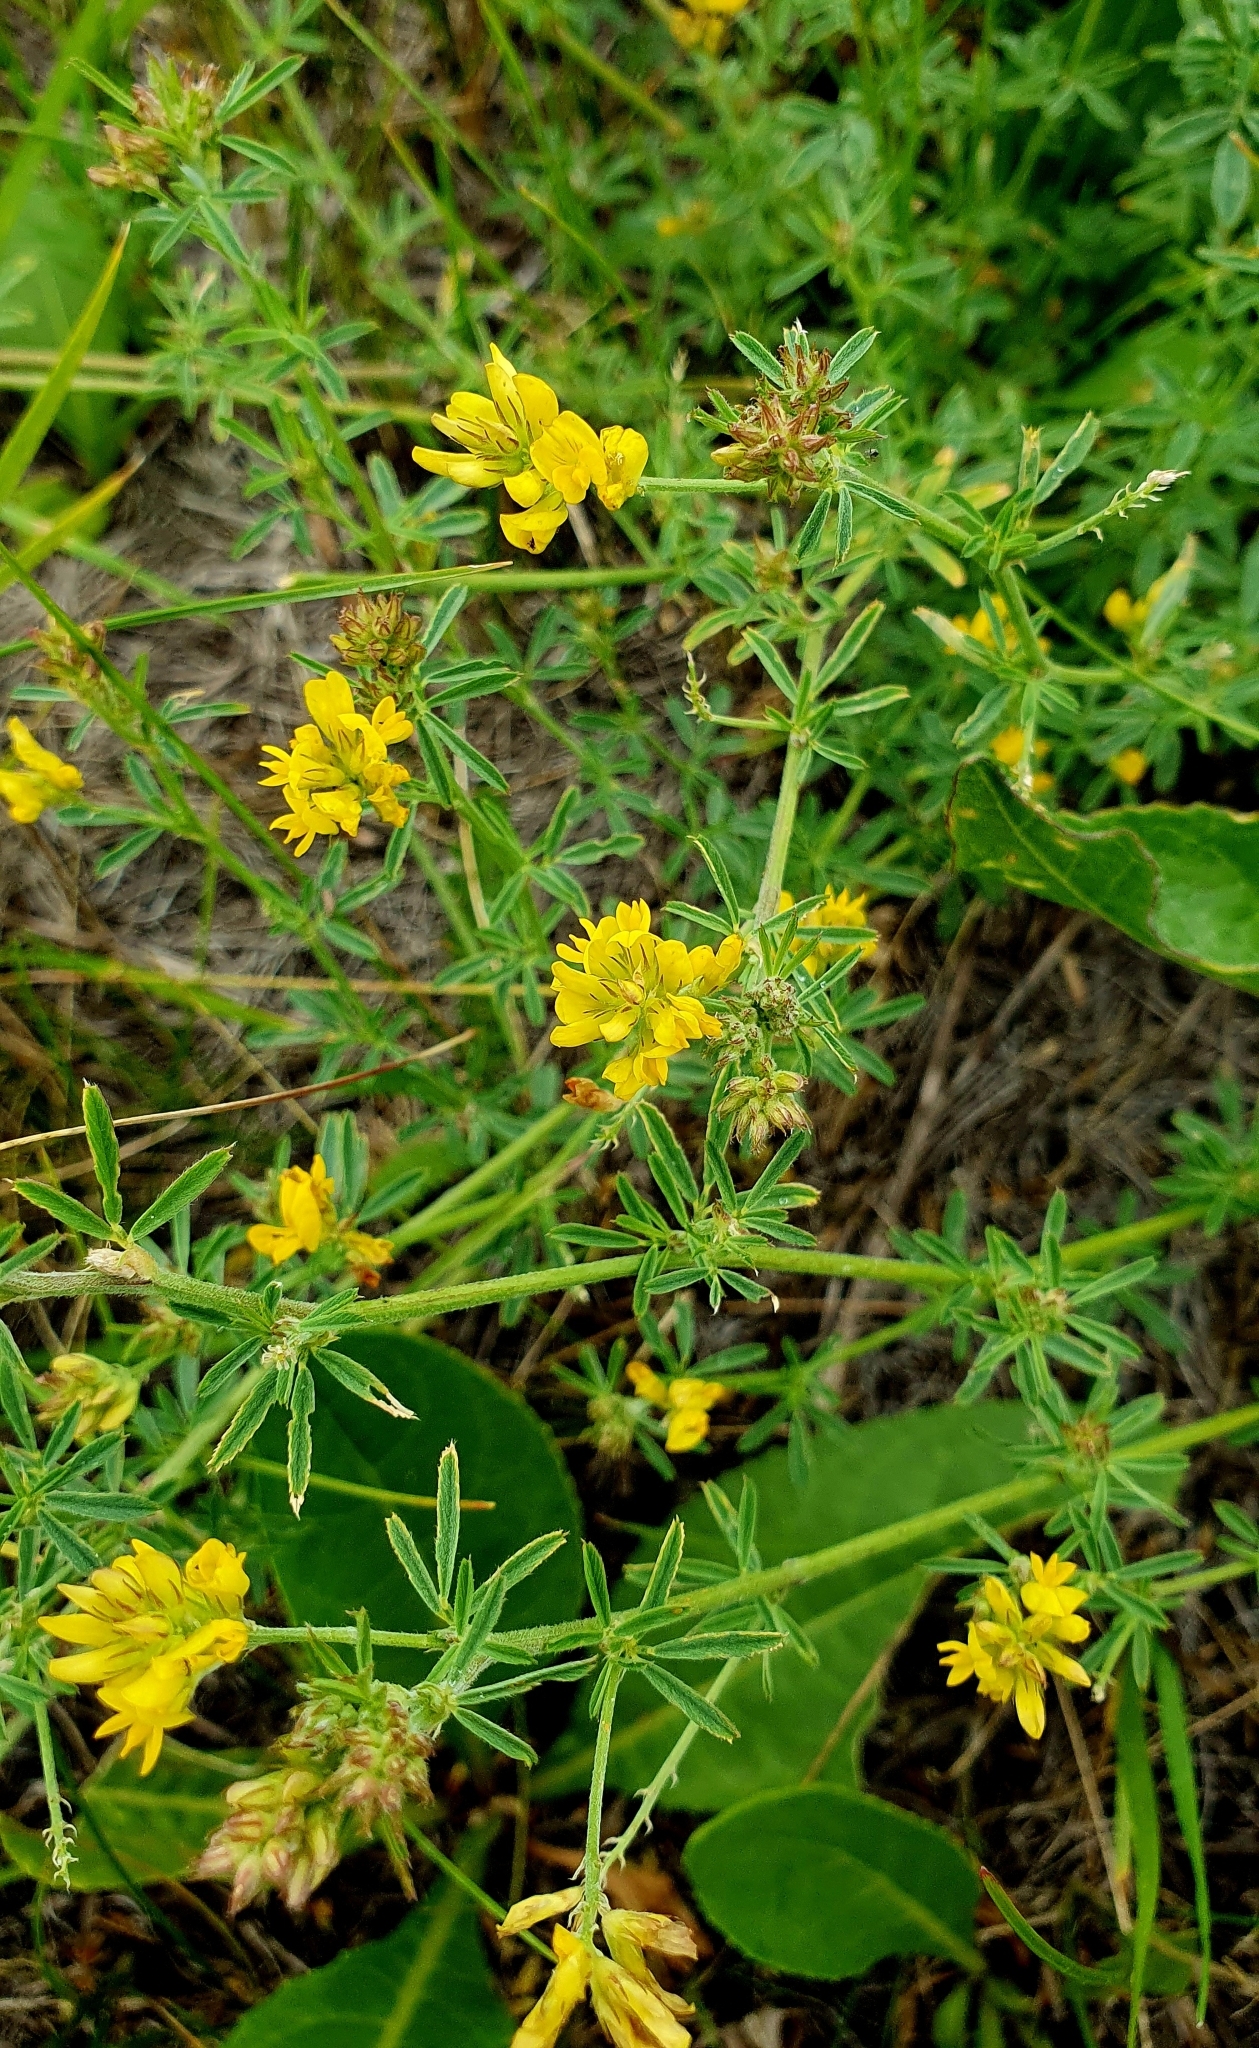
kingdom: Plantae
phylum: Tracheophyta
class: Magnoliopsida
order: Fabales
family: Fabaceae
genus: Medicago
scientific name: Medicago falcata
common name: Sickle medick
